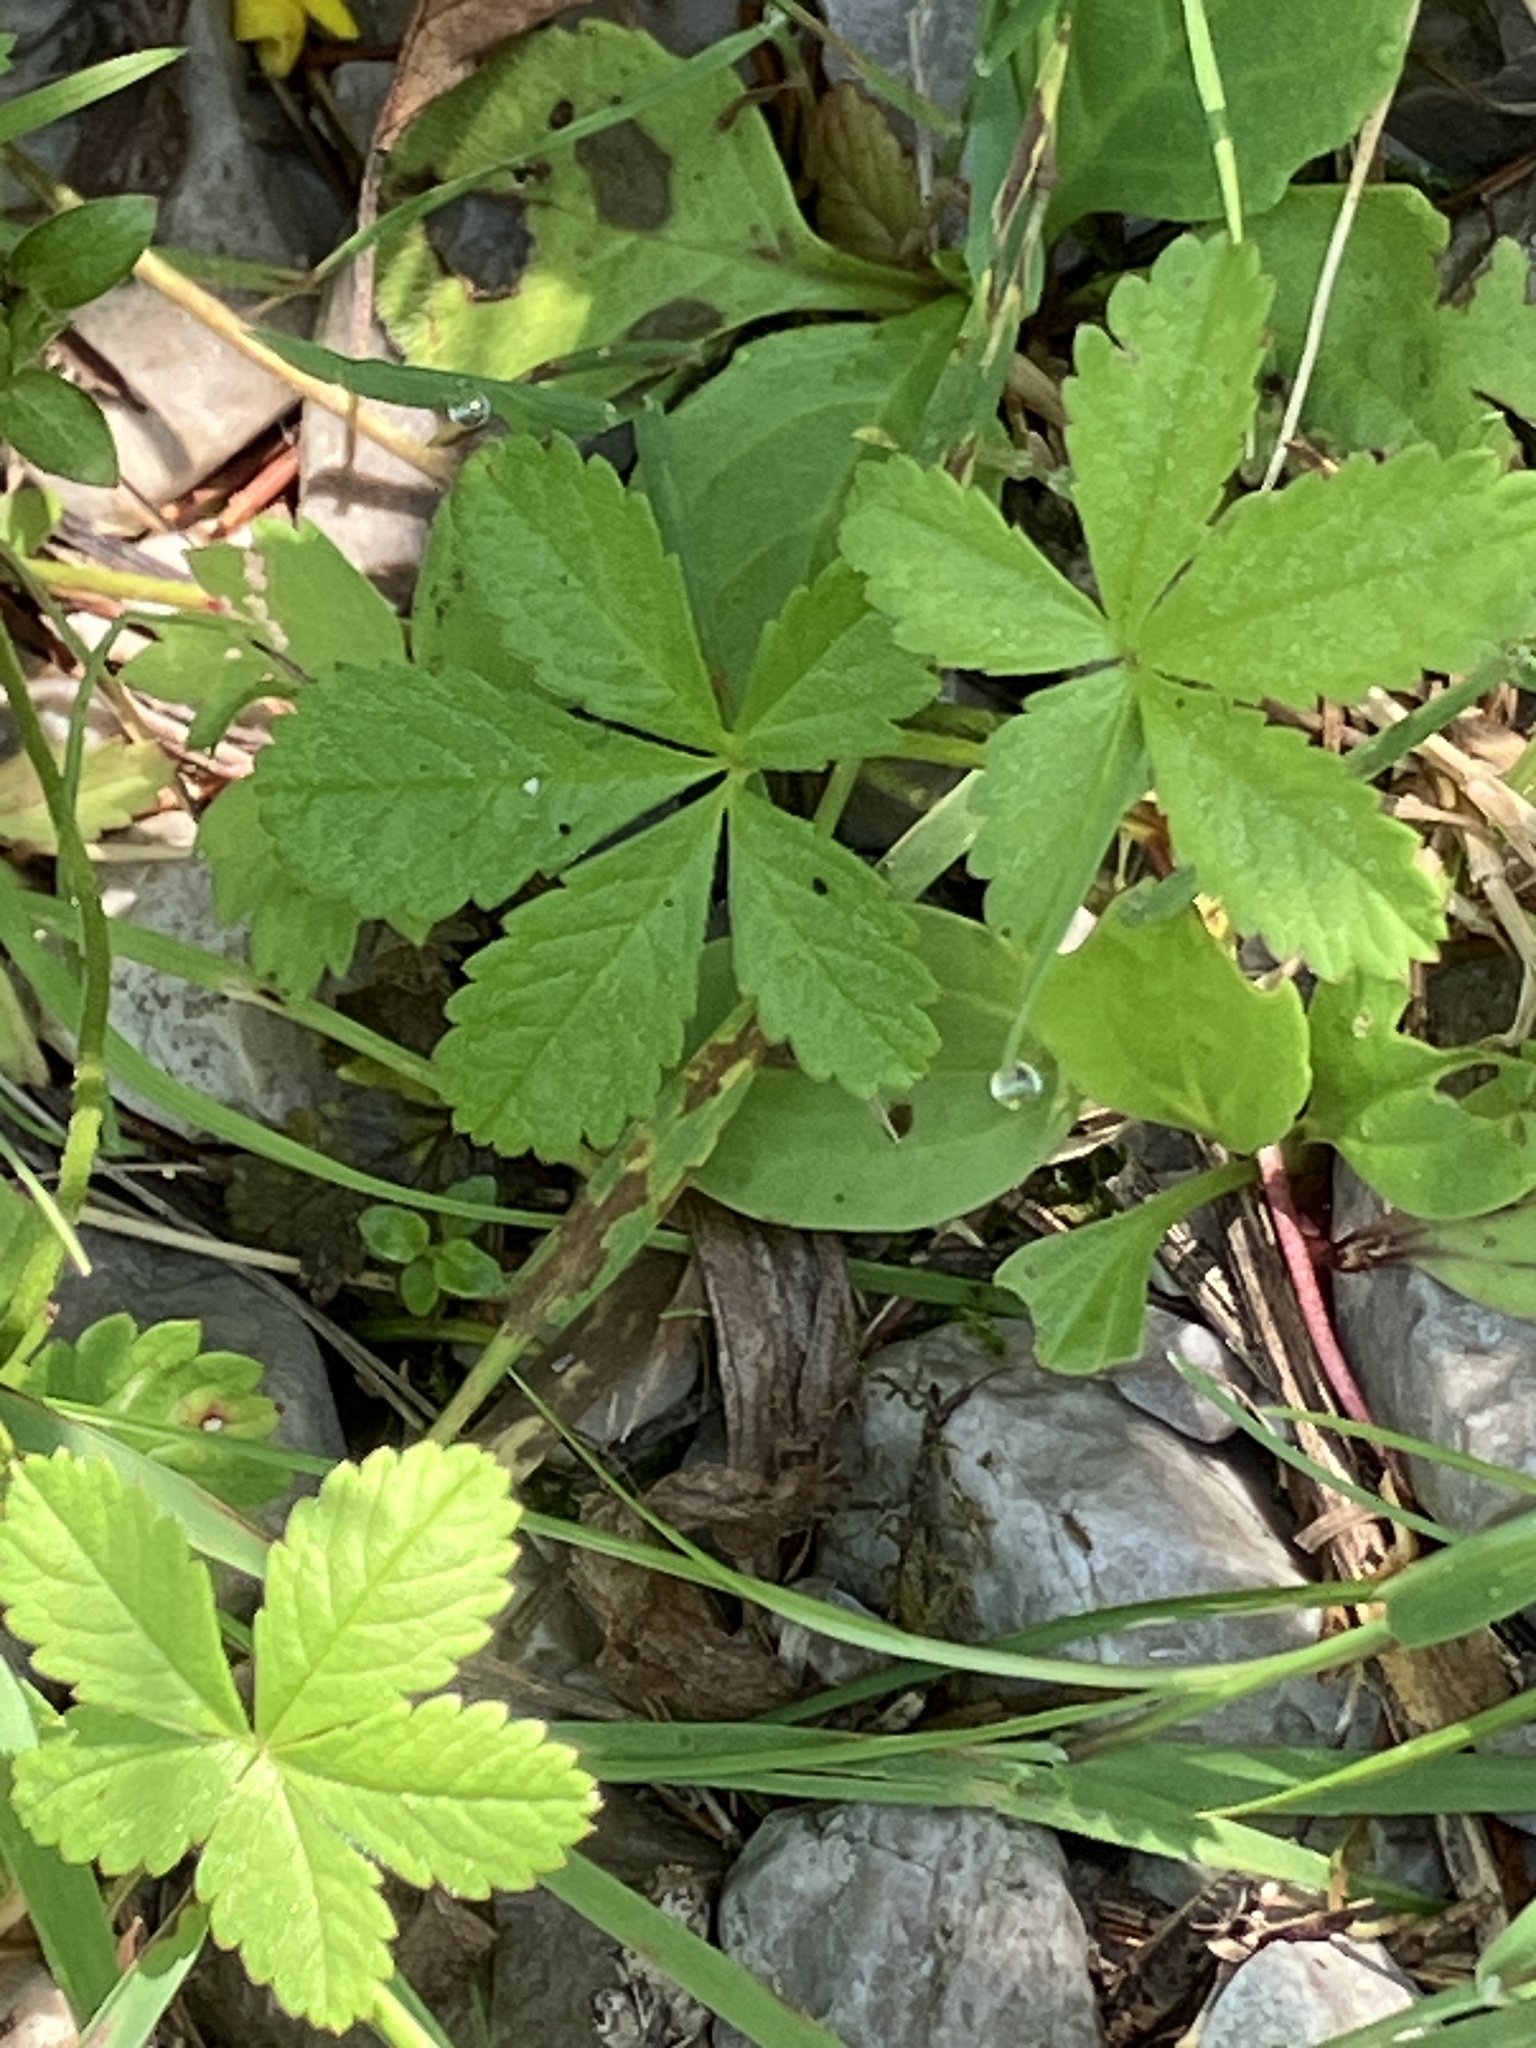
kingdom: Plantae
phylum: Tracheophyta
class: Magnoliopsida
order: Rosales
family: Rosaceae
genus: Potentilla
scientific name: Potentilla reptans
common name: Creeping cinquefoil
